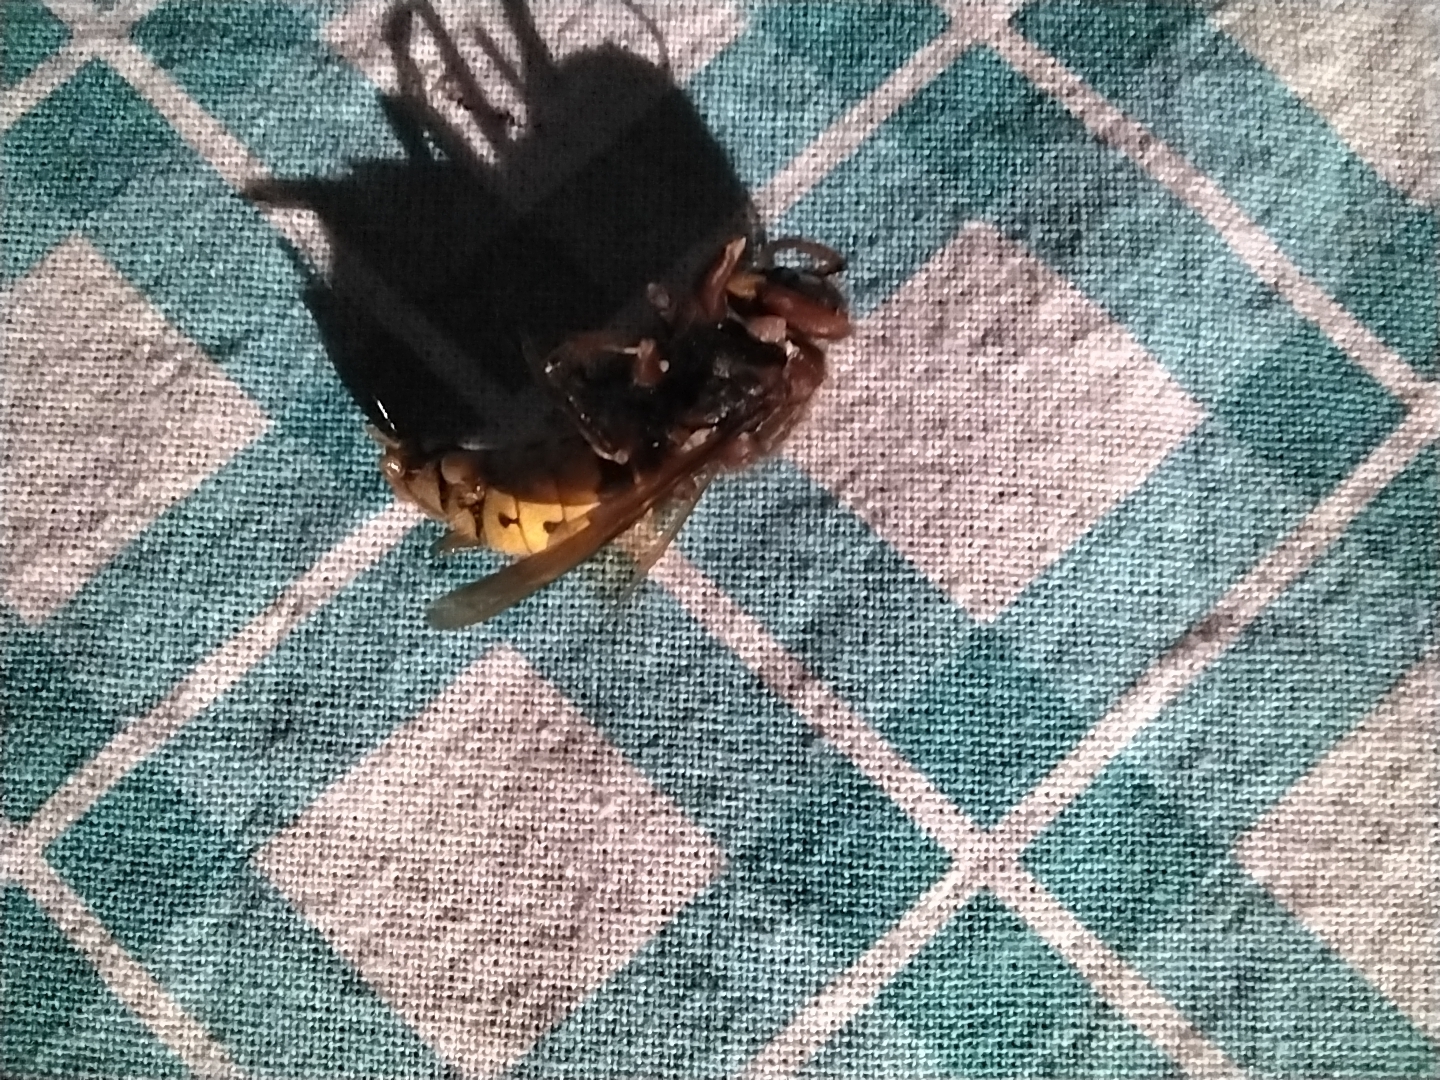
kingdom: Animalia
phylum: Arthropoda
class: Insecta
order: Hymenoptera
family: Vespidae
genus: Vespa
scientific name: Vespa crabro
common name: Hornet
